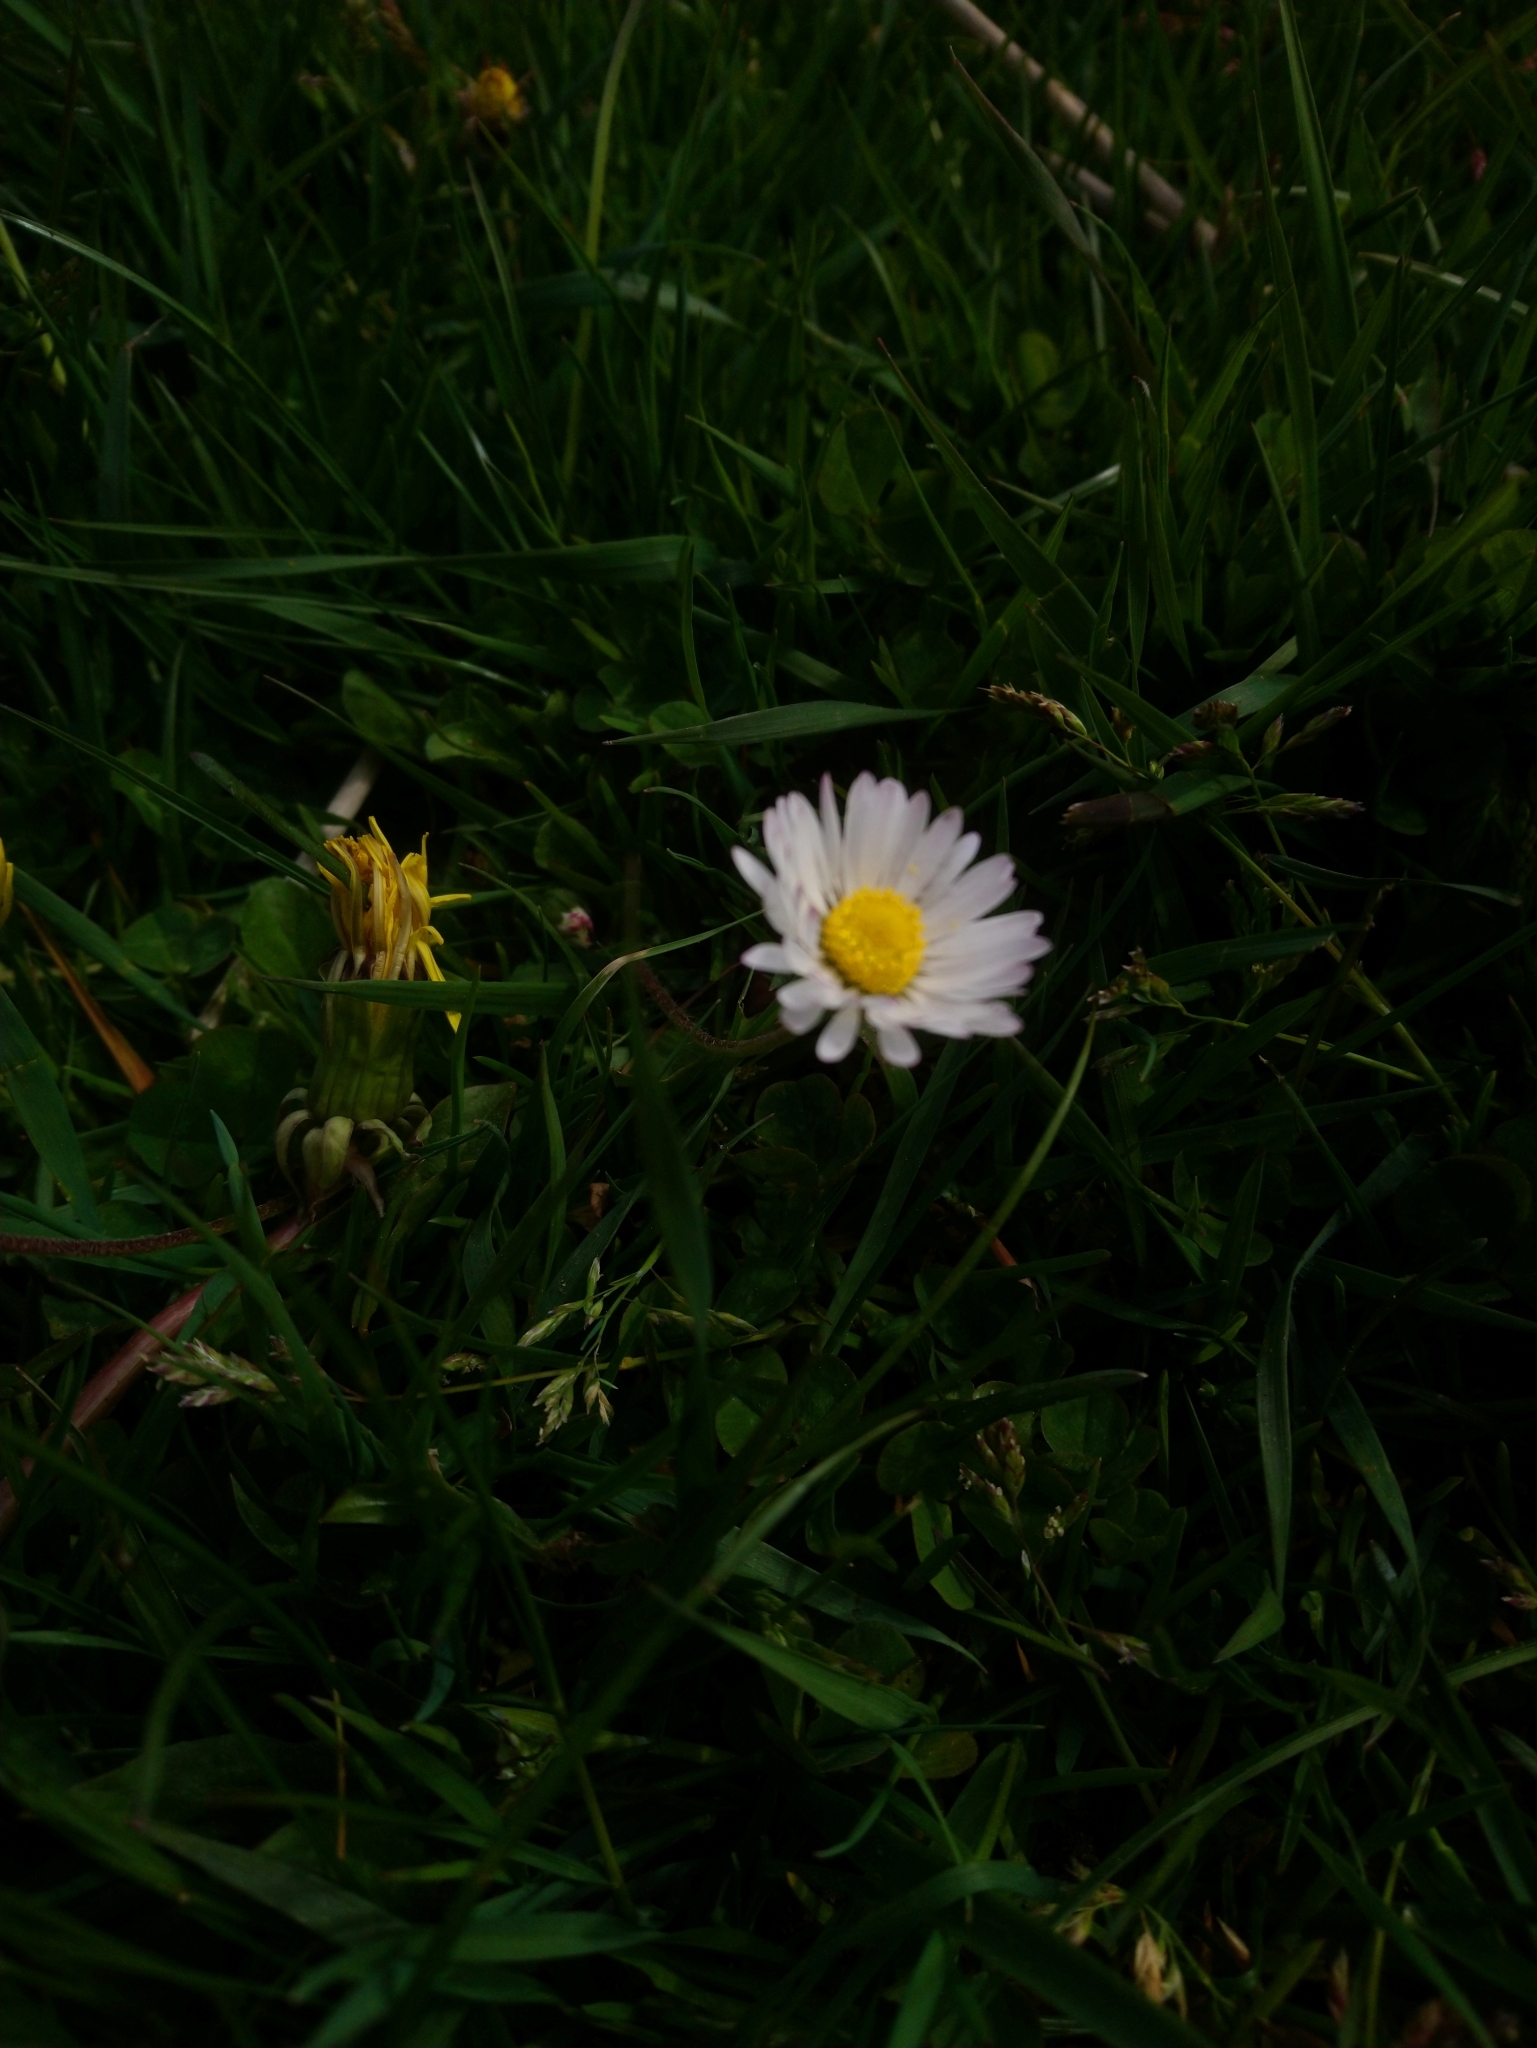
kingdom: Plantae
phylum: Tracheophyta
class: Magnoliopsida
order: Asterales
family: Asteraceae
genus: Bellis
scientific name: Bellis perennis
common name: Lawndaisy
